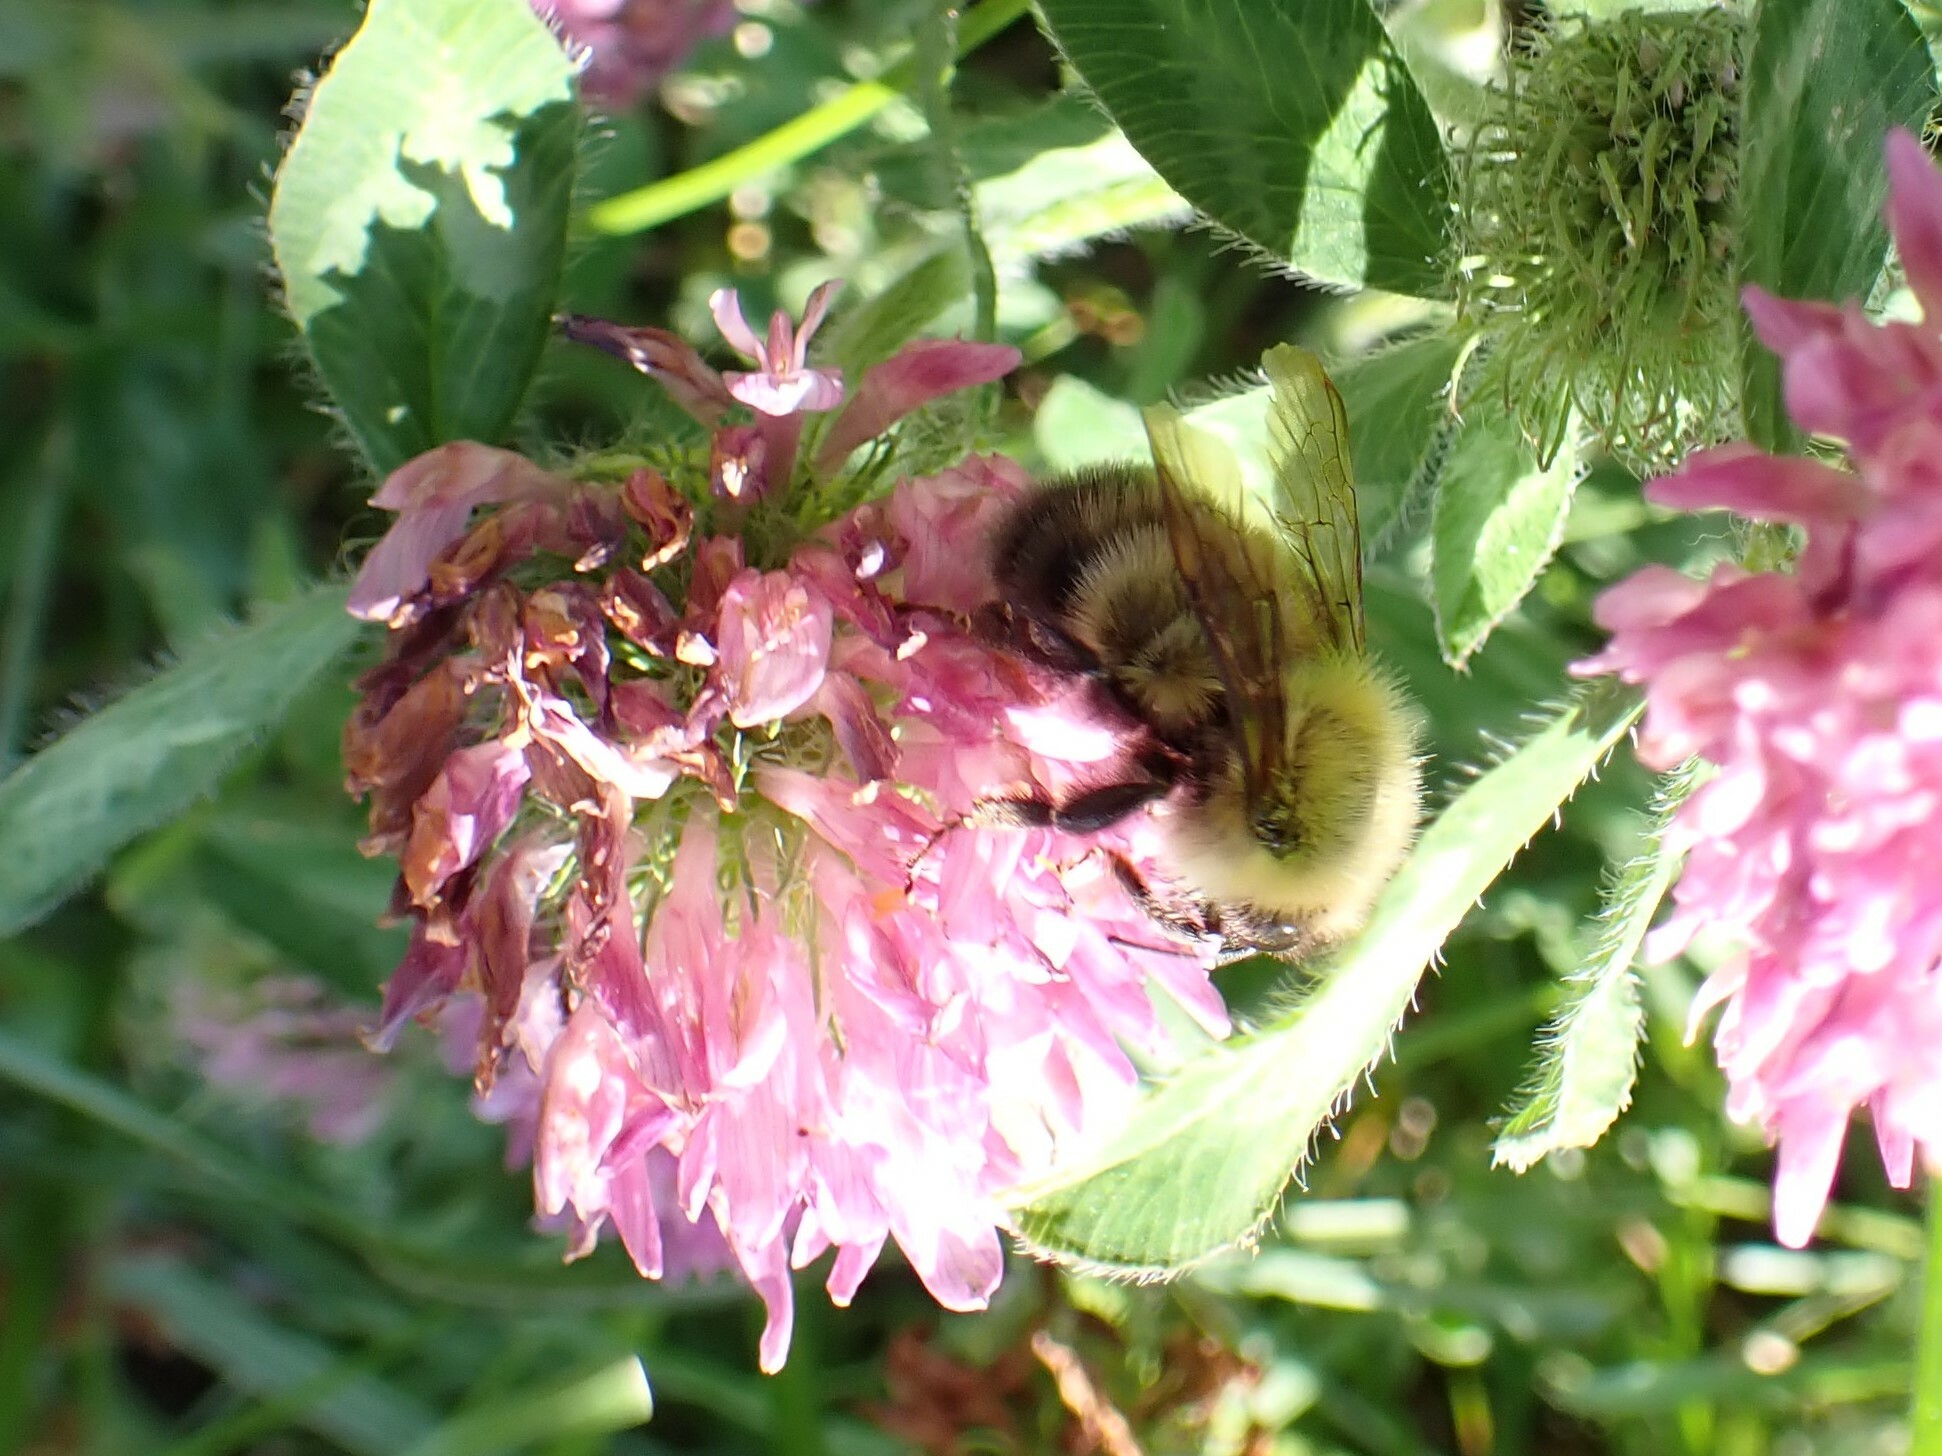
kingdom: Animalia
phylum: Arthropoda
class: Insecta
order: Hymenoptera
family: Apidae
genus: Bombus
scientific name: Bombus perplexus
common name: Confusing bumble bee
